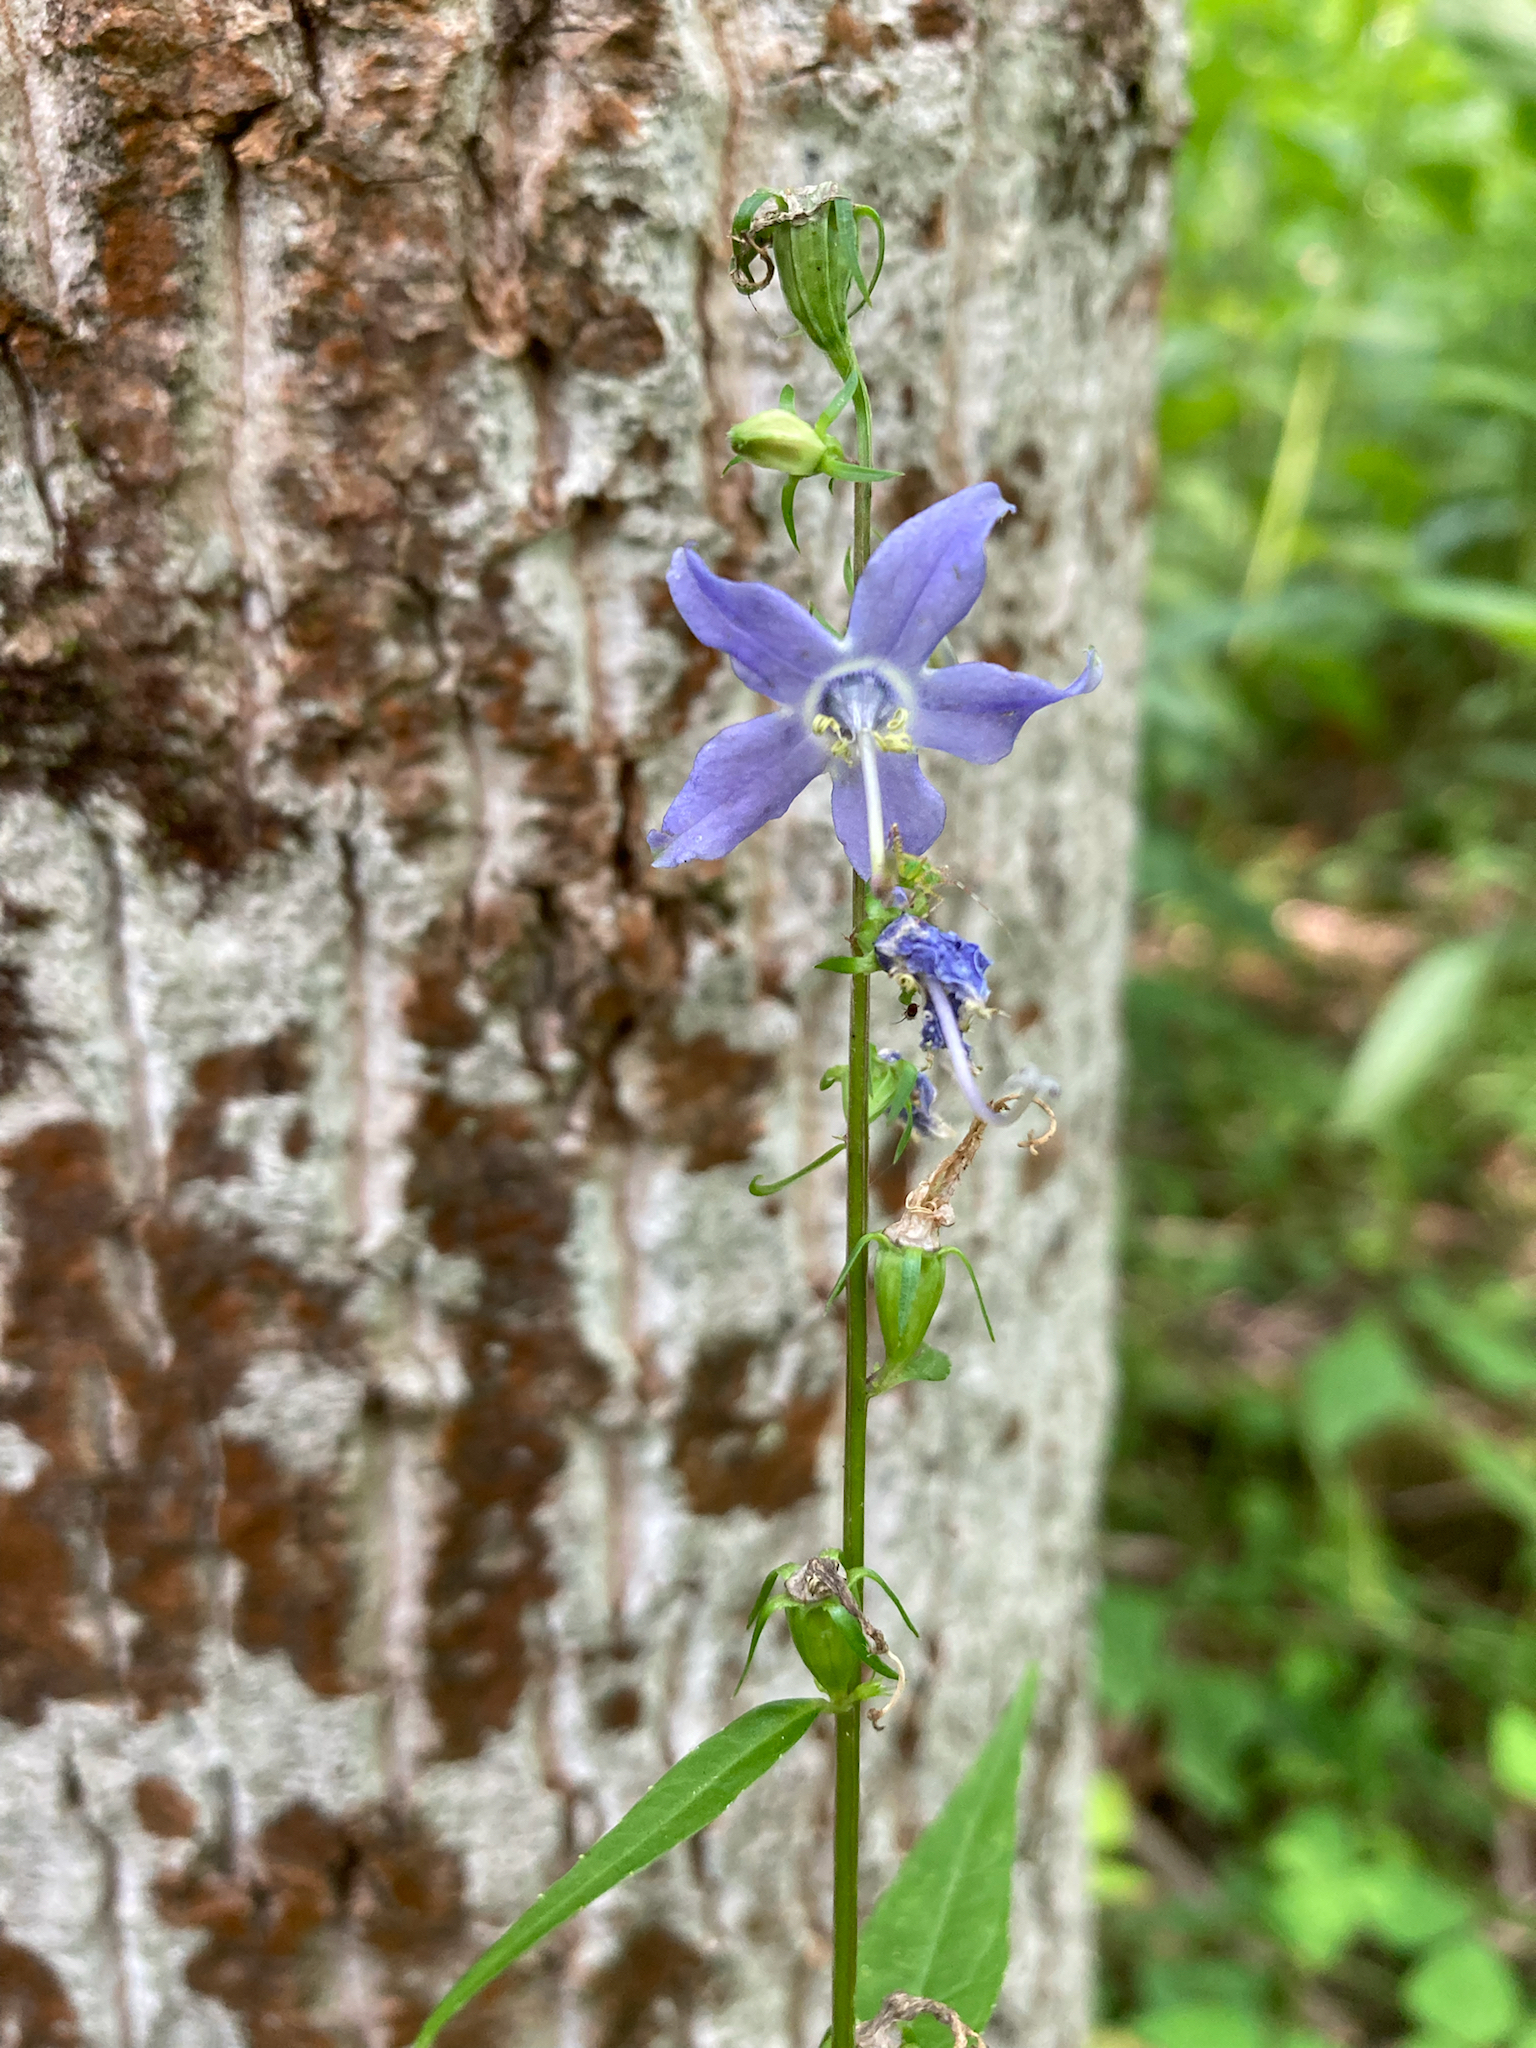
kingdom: Plantae
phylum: Tracheophyta
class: Magnoliopsida
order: Asterales
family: Campanulaceae
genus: Campanulastrum
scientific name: Campanulastrum americanum
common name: American bellflower
